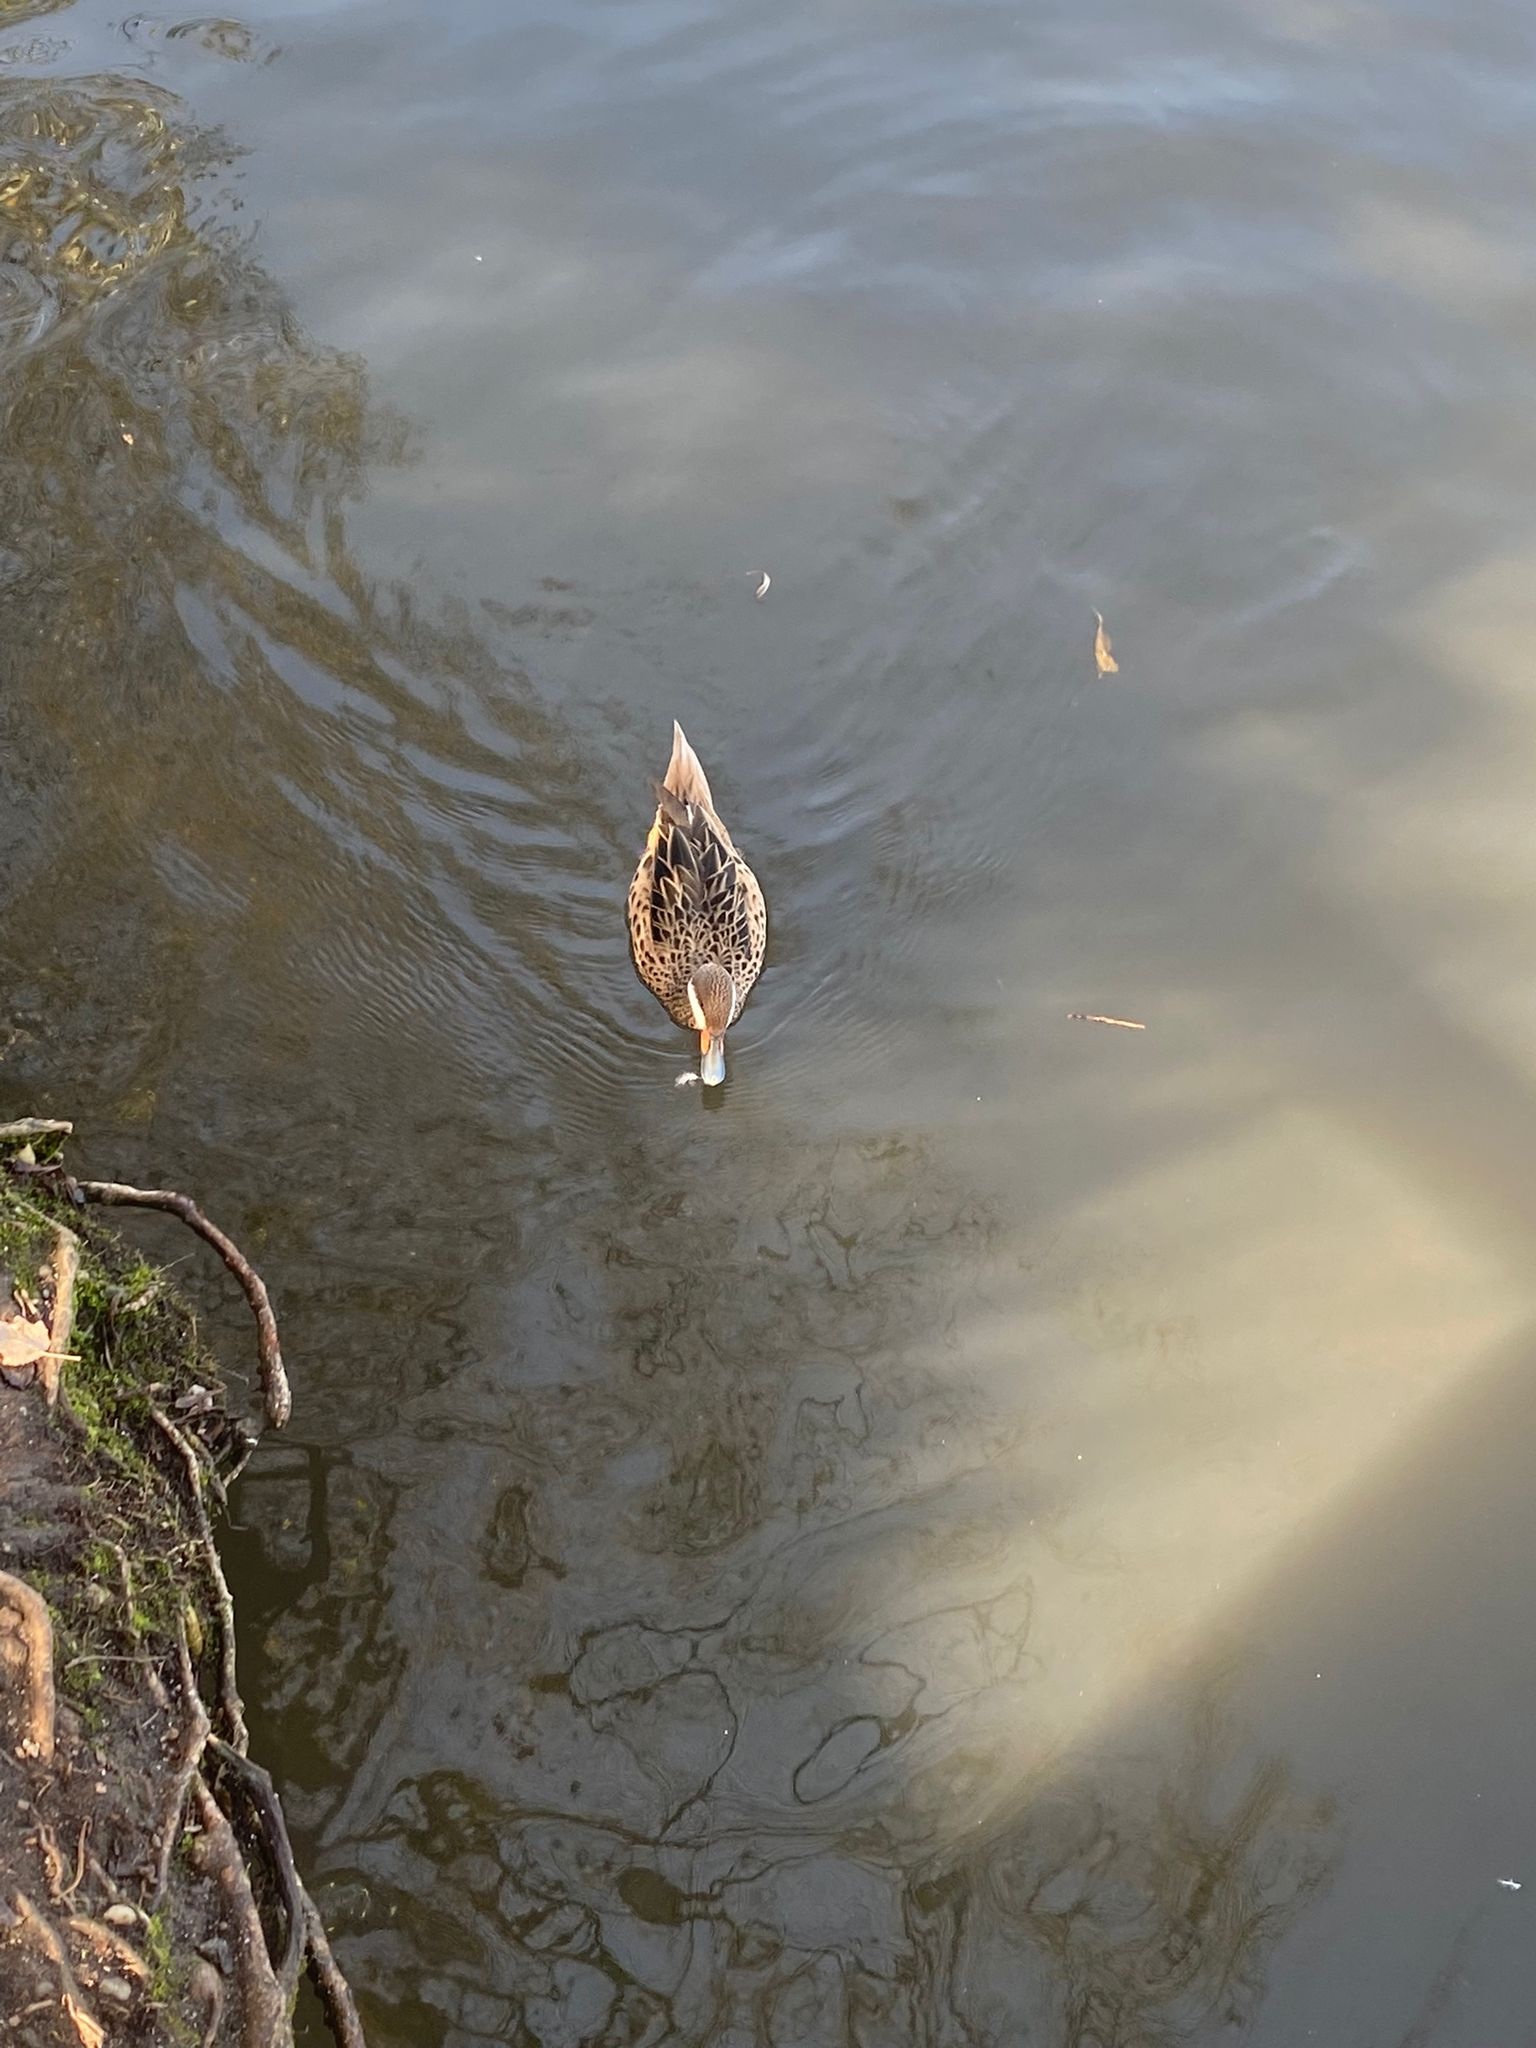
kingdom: Animalia
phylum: Chordata
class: Aves
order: Anseriformes
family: Anatidae
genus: Anas
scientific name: Anas bahamensis
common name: White-cheeked pintail
